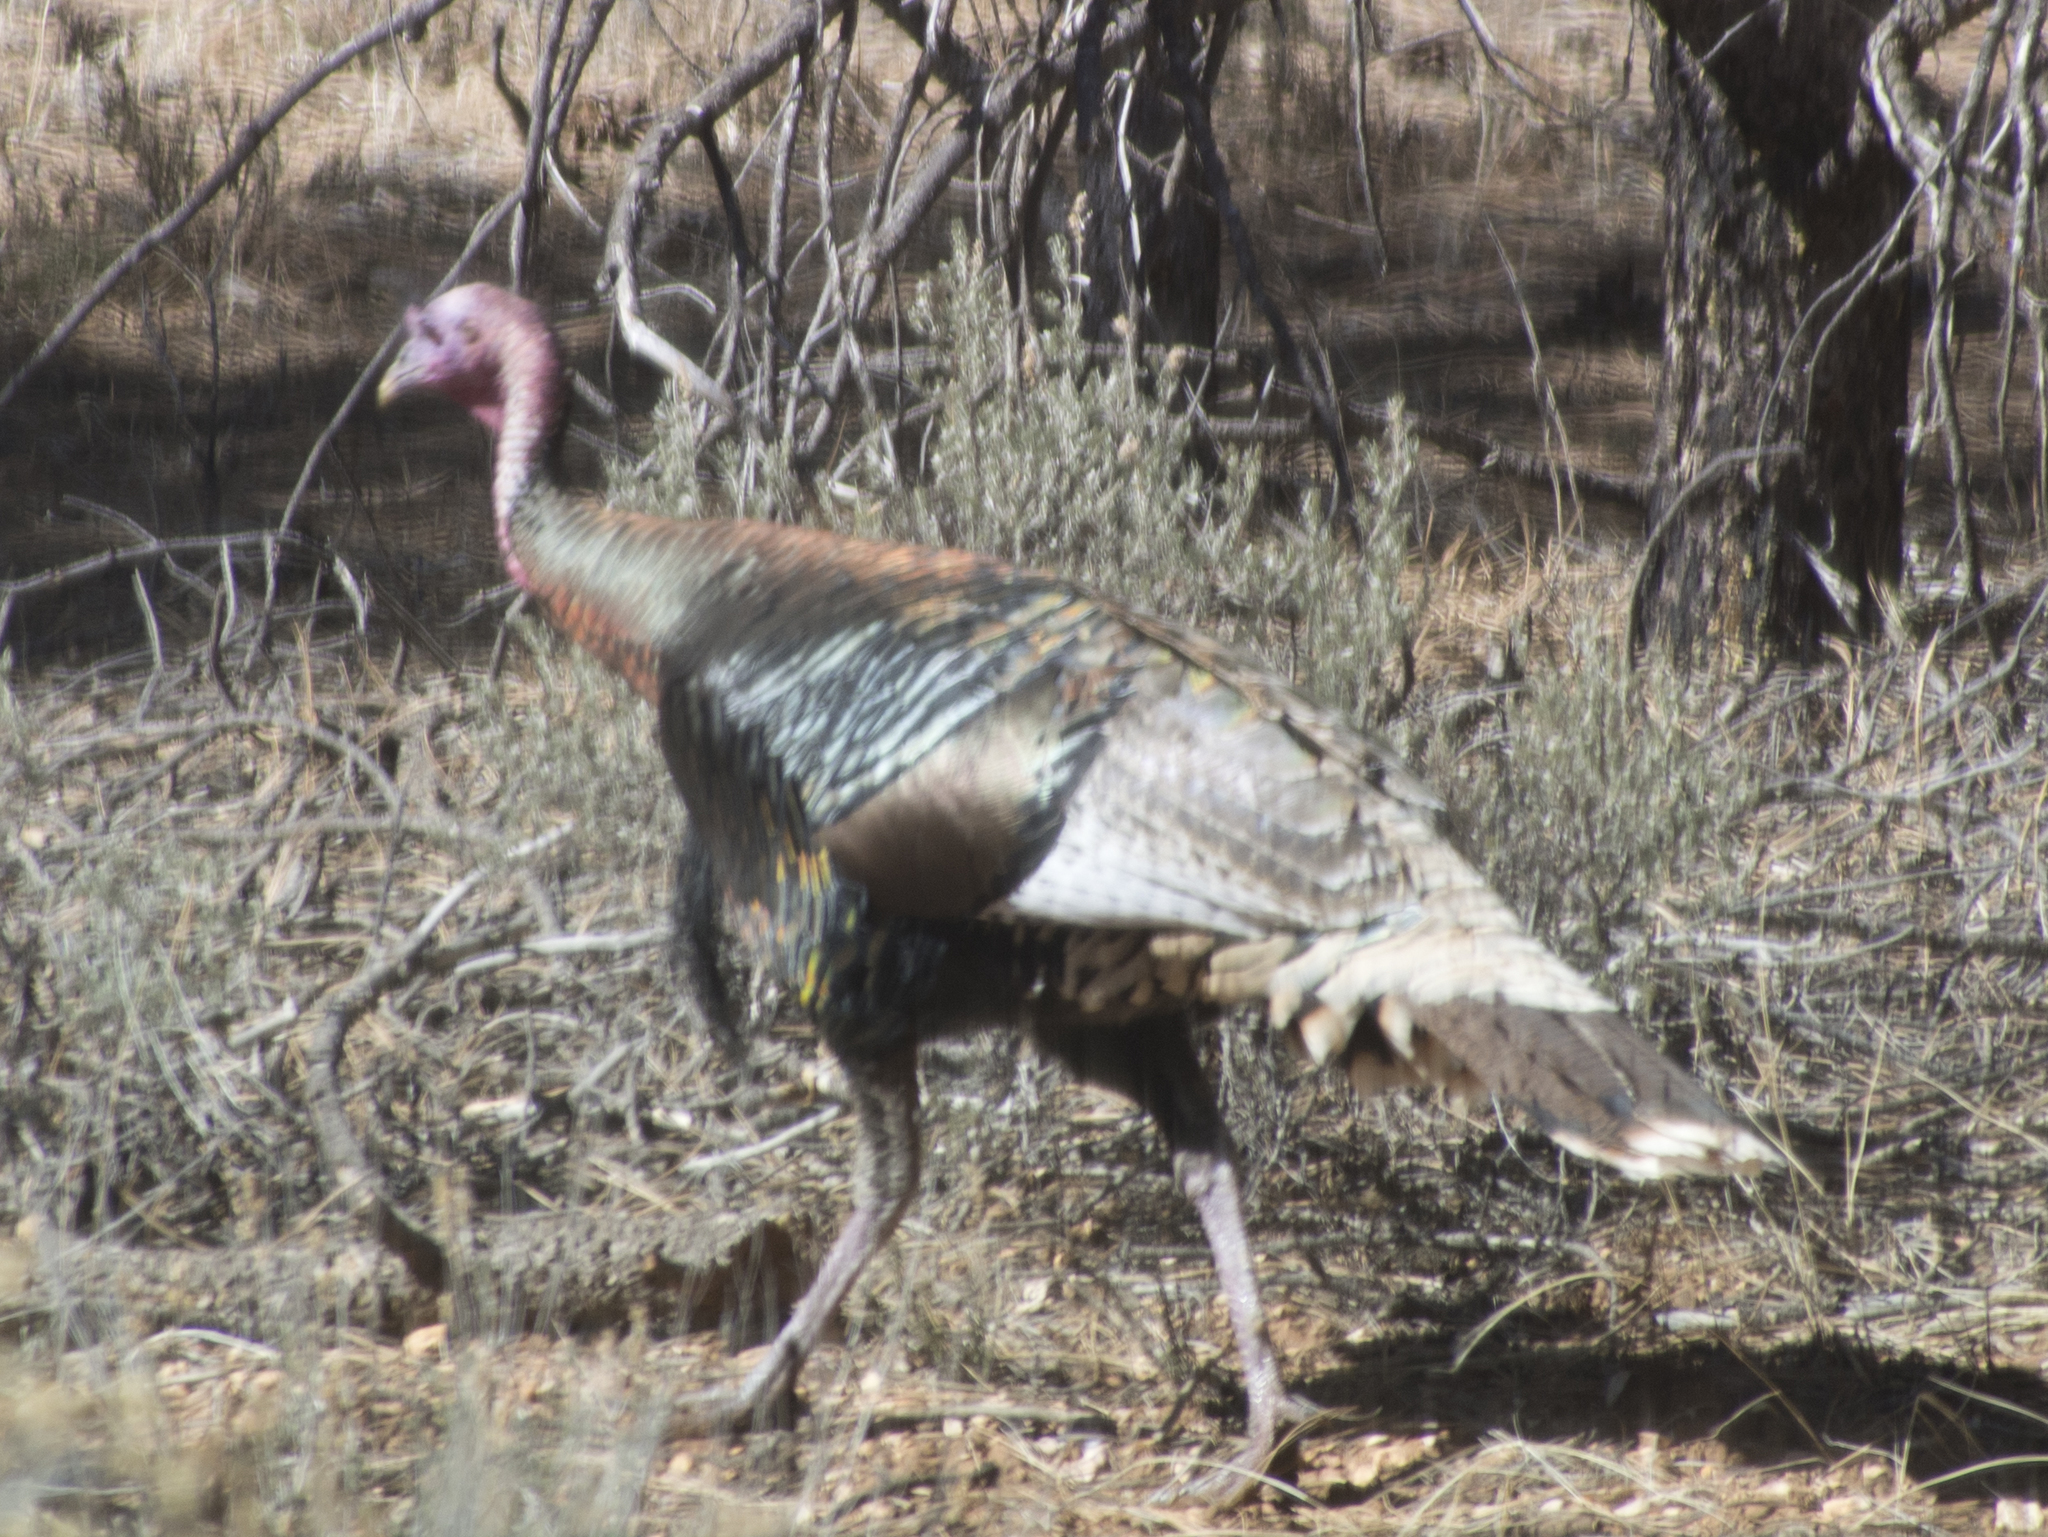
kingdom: Animalia
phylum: Chordata
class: Aves
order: Galliformes
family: Phasianidae
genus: Meleagris
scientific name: Meleagris gallopavo
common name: Wild turkey
